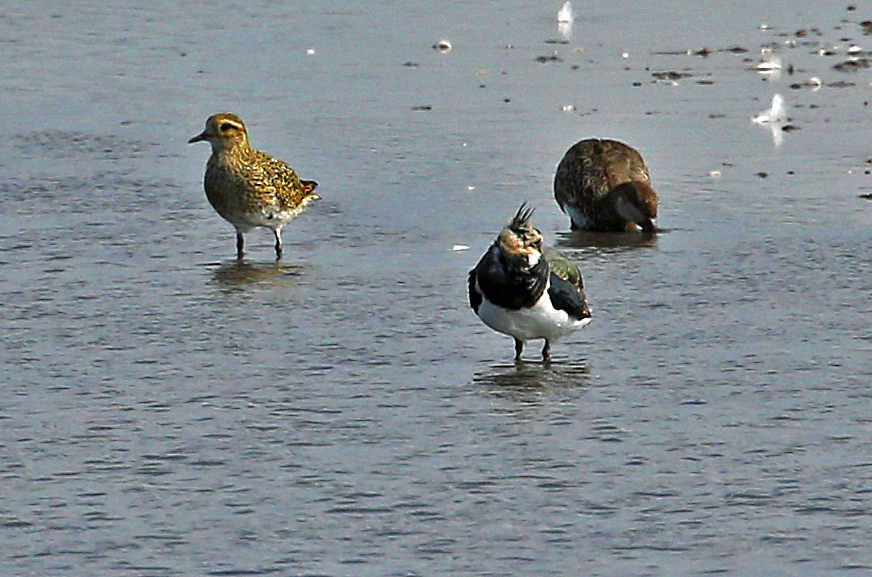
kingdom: Animalia
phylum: Chordata
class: Aves
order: Charadriiformes
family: Charadriidae
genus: Pluvialis
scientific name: Pluvialis apricaria
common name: European golden plover
